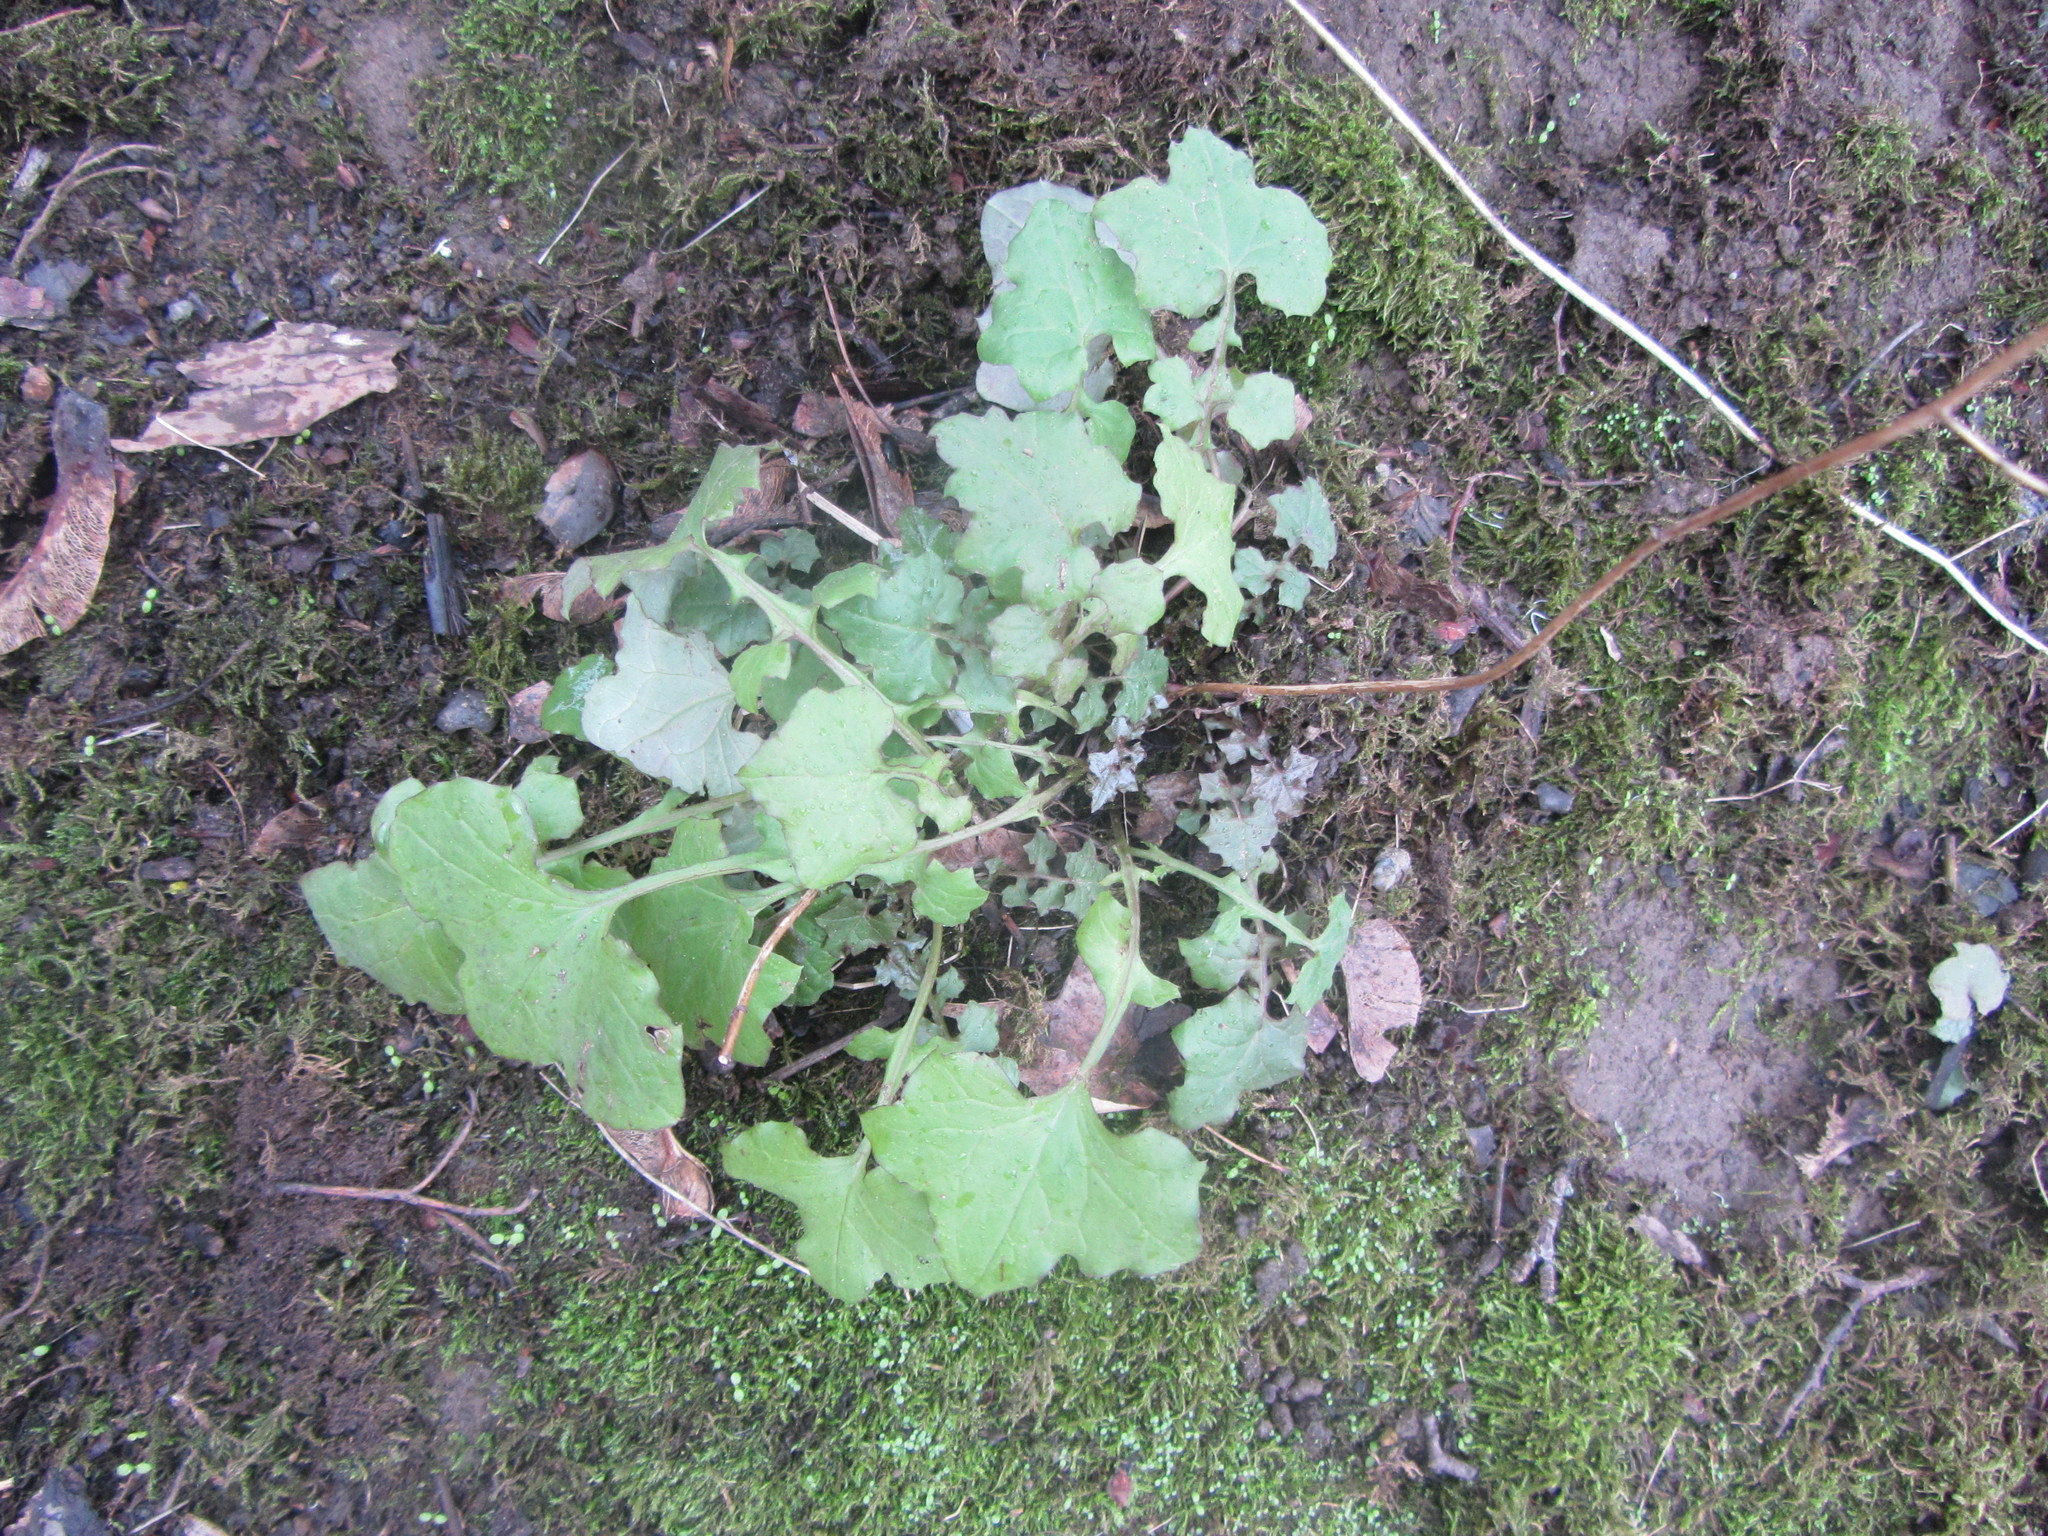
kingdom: Plantae
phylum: Tracheophyta
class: Magnoliopsida
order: Asterales
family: Asteraceae
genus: Mycelis
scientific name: Mycelis muralis
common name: Wall lettuce
